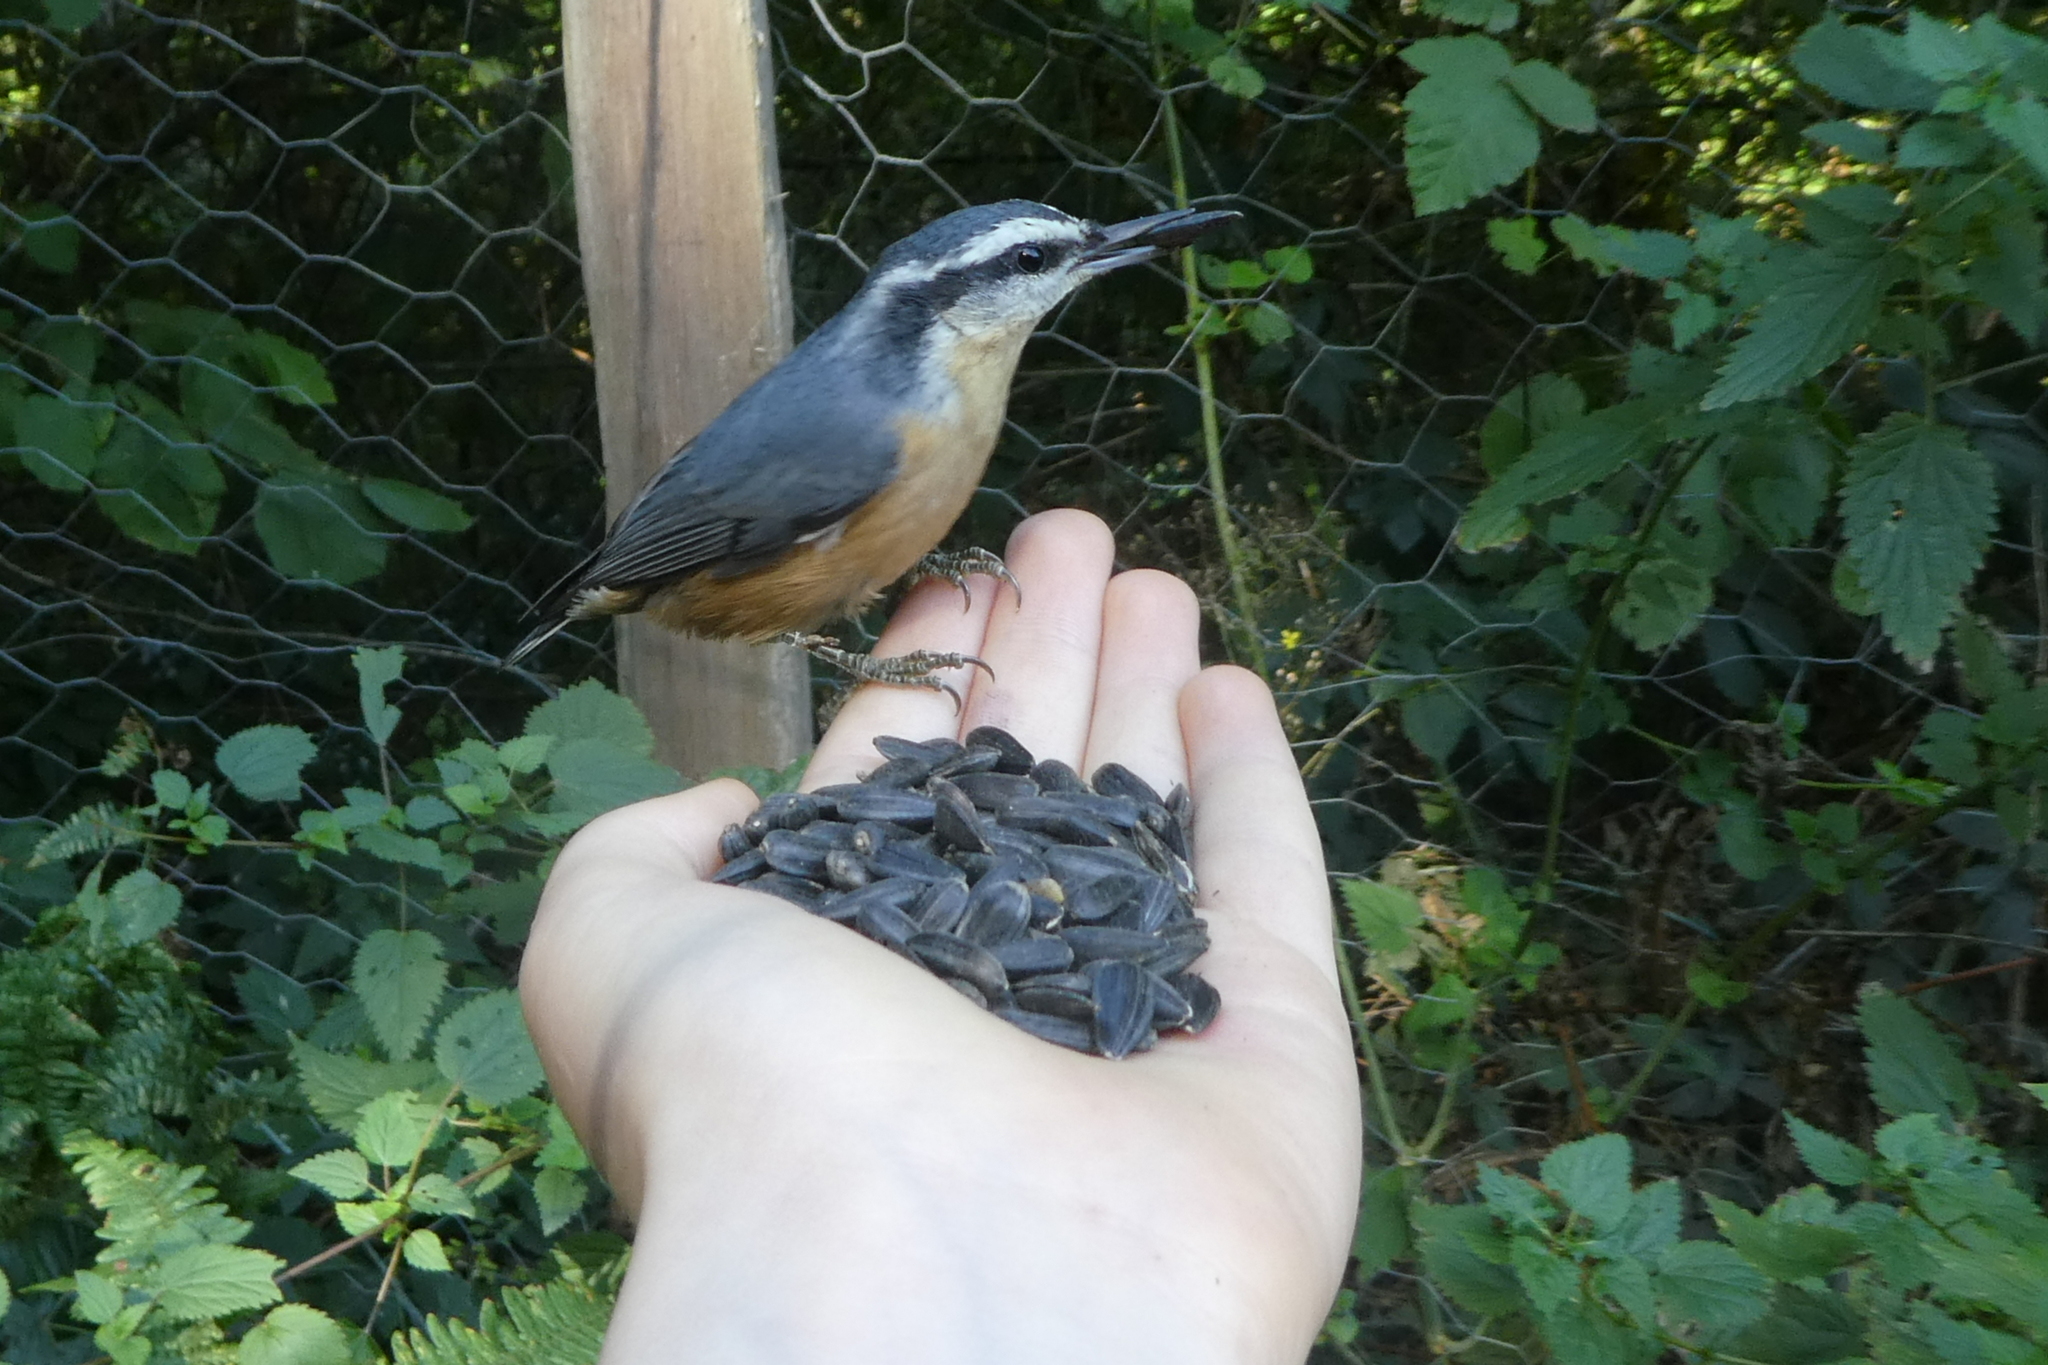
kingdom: Animalia
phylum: Chordata
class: Aves
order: Passeriformes
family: Sittidae
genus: Sitta
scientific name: Sitta canadensis
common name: Red-breasted nuthatch
